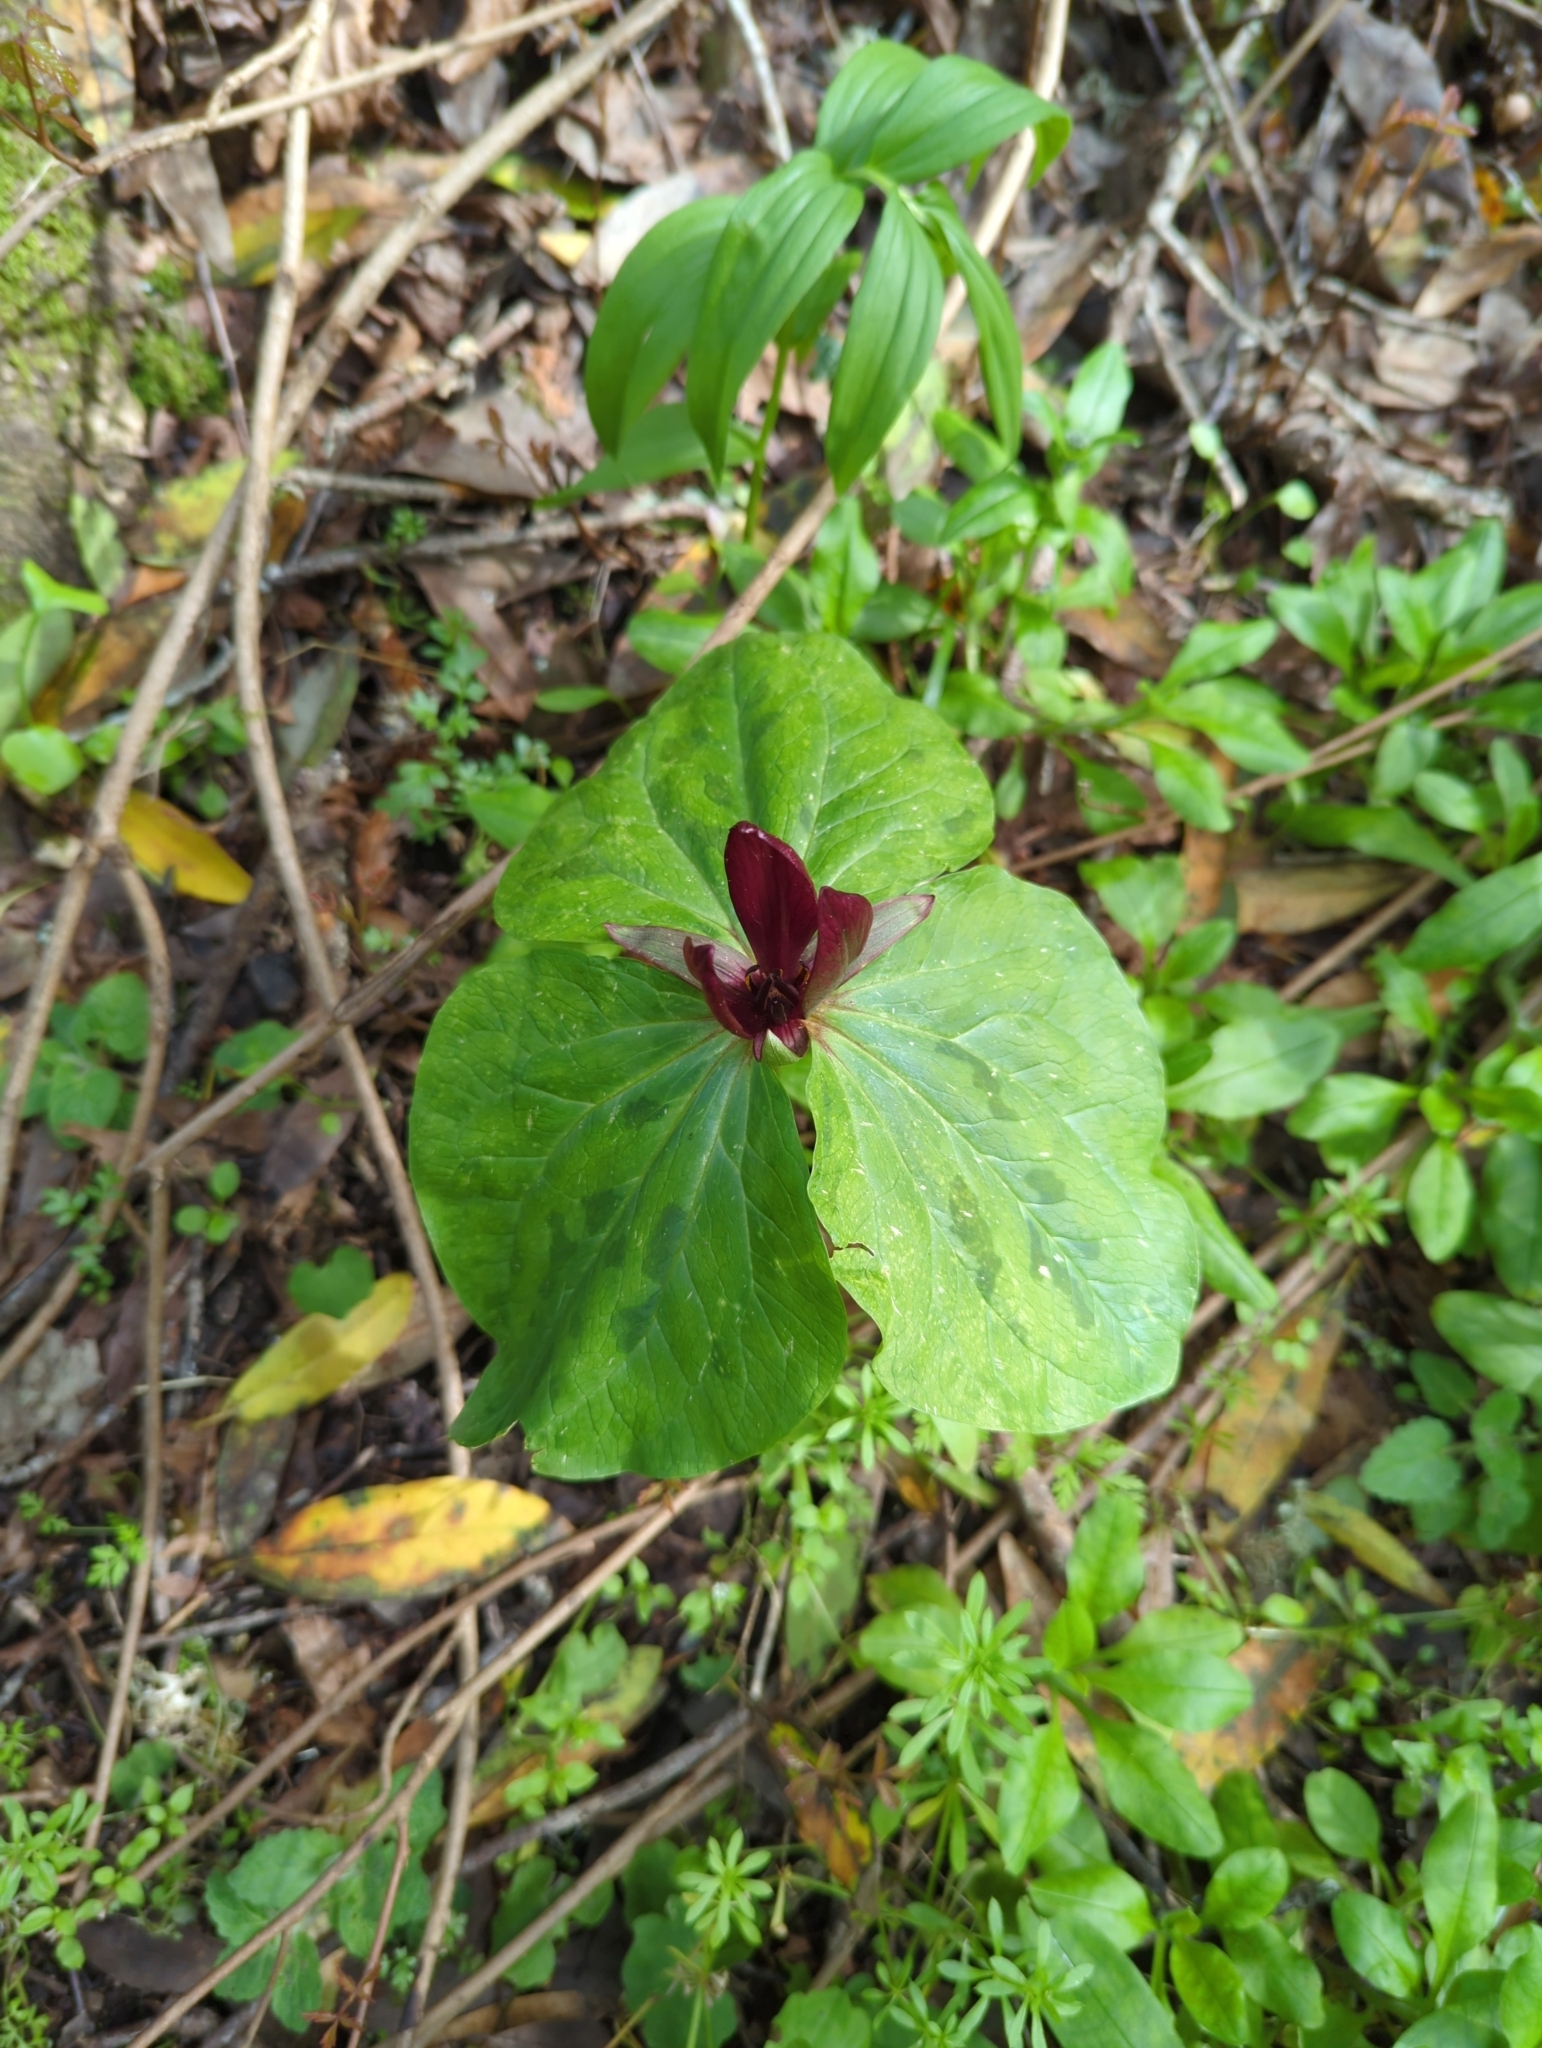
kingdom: Plantae
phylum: Tracheophyta
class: Liliopsida
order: Liliales
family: Melanthiaceae
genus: Trillium
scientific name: Trillium chloropetalum
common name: Giant trillium
